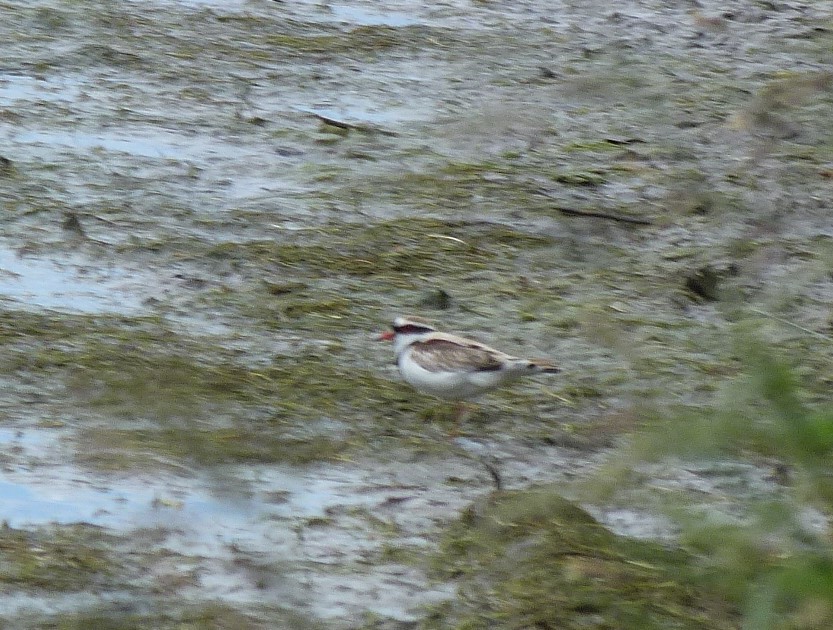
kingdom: Animalia
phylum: Chordata
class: Aves
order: Charadriiformes
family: Charadriidae
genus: Elseyornis
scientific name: Elseyornis melanops
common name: Black-fronted dotterel
